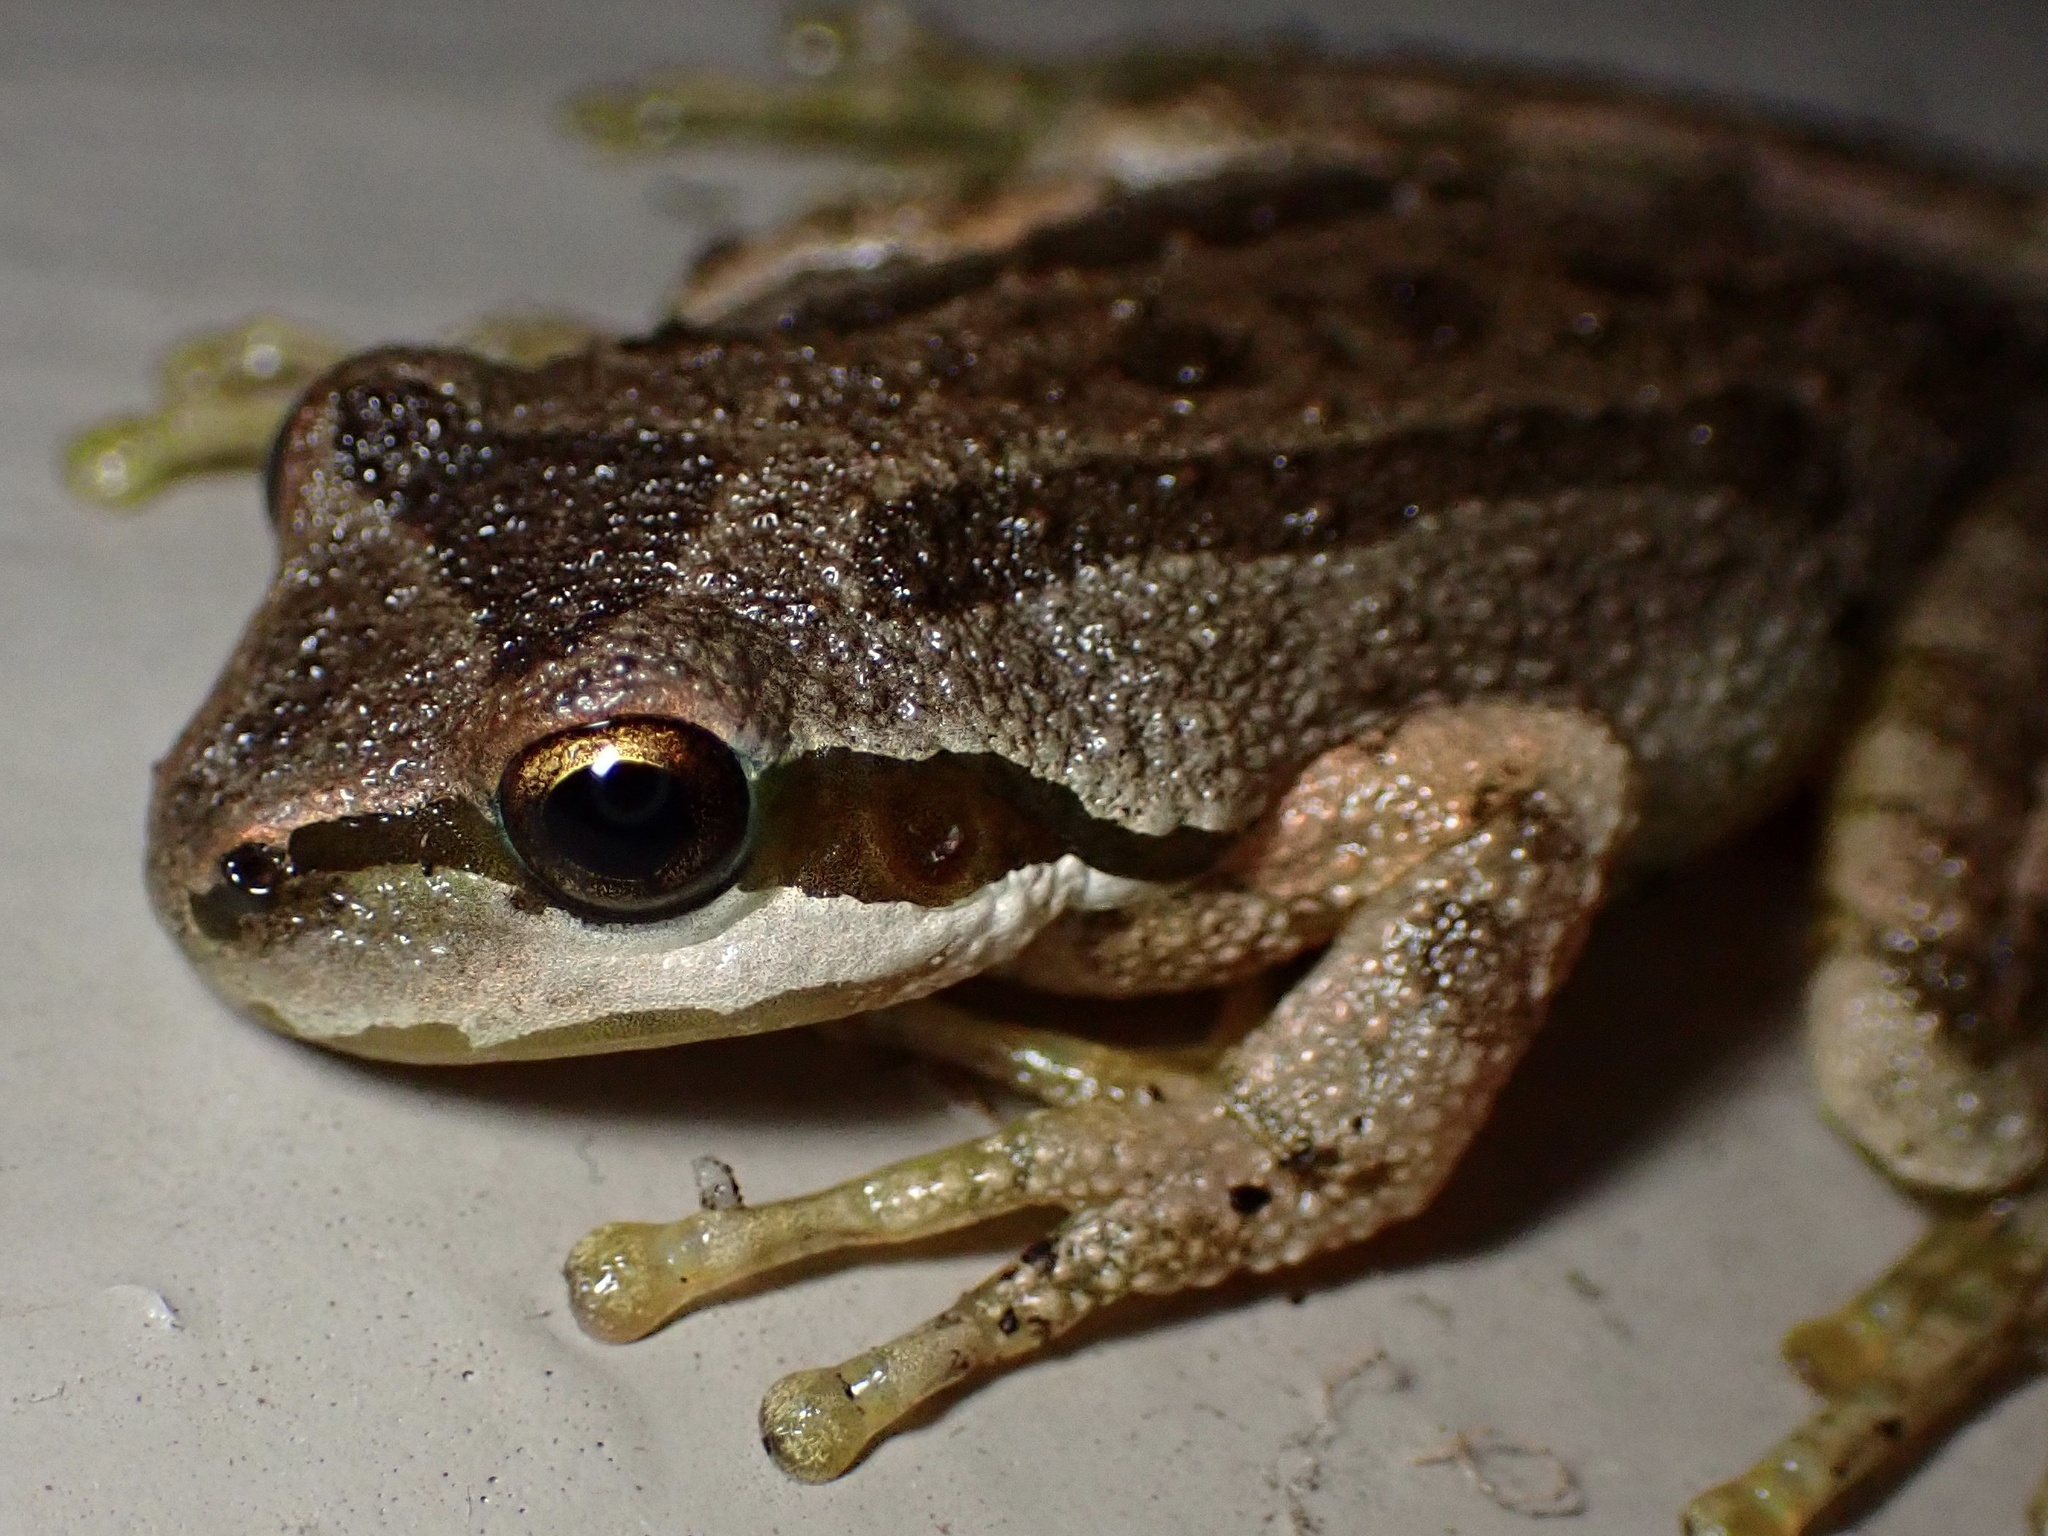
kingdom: Animalia
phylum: Chordata
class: Amphibia
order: Anura
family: Hylidae
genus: Pseudacris
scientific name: Pseudacris regilla
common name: Pacific chorus frog
